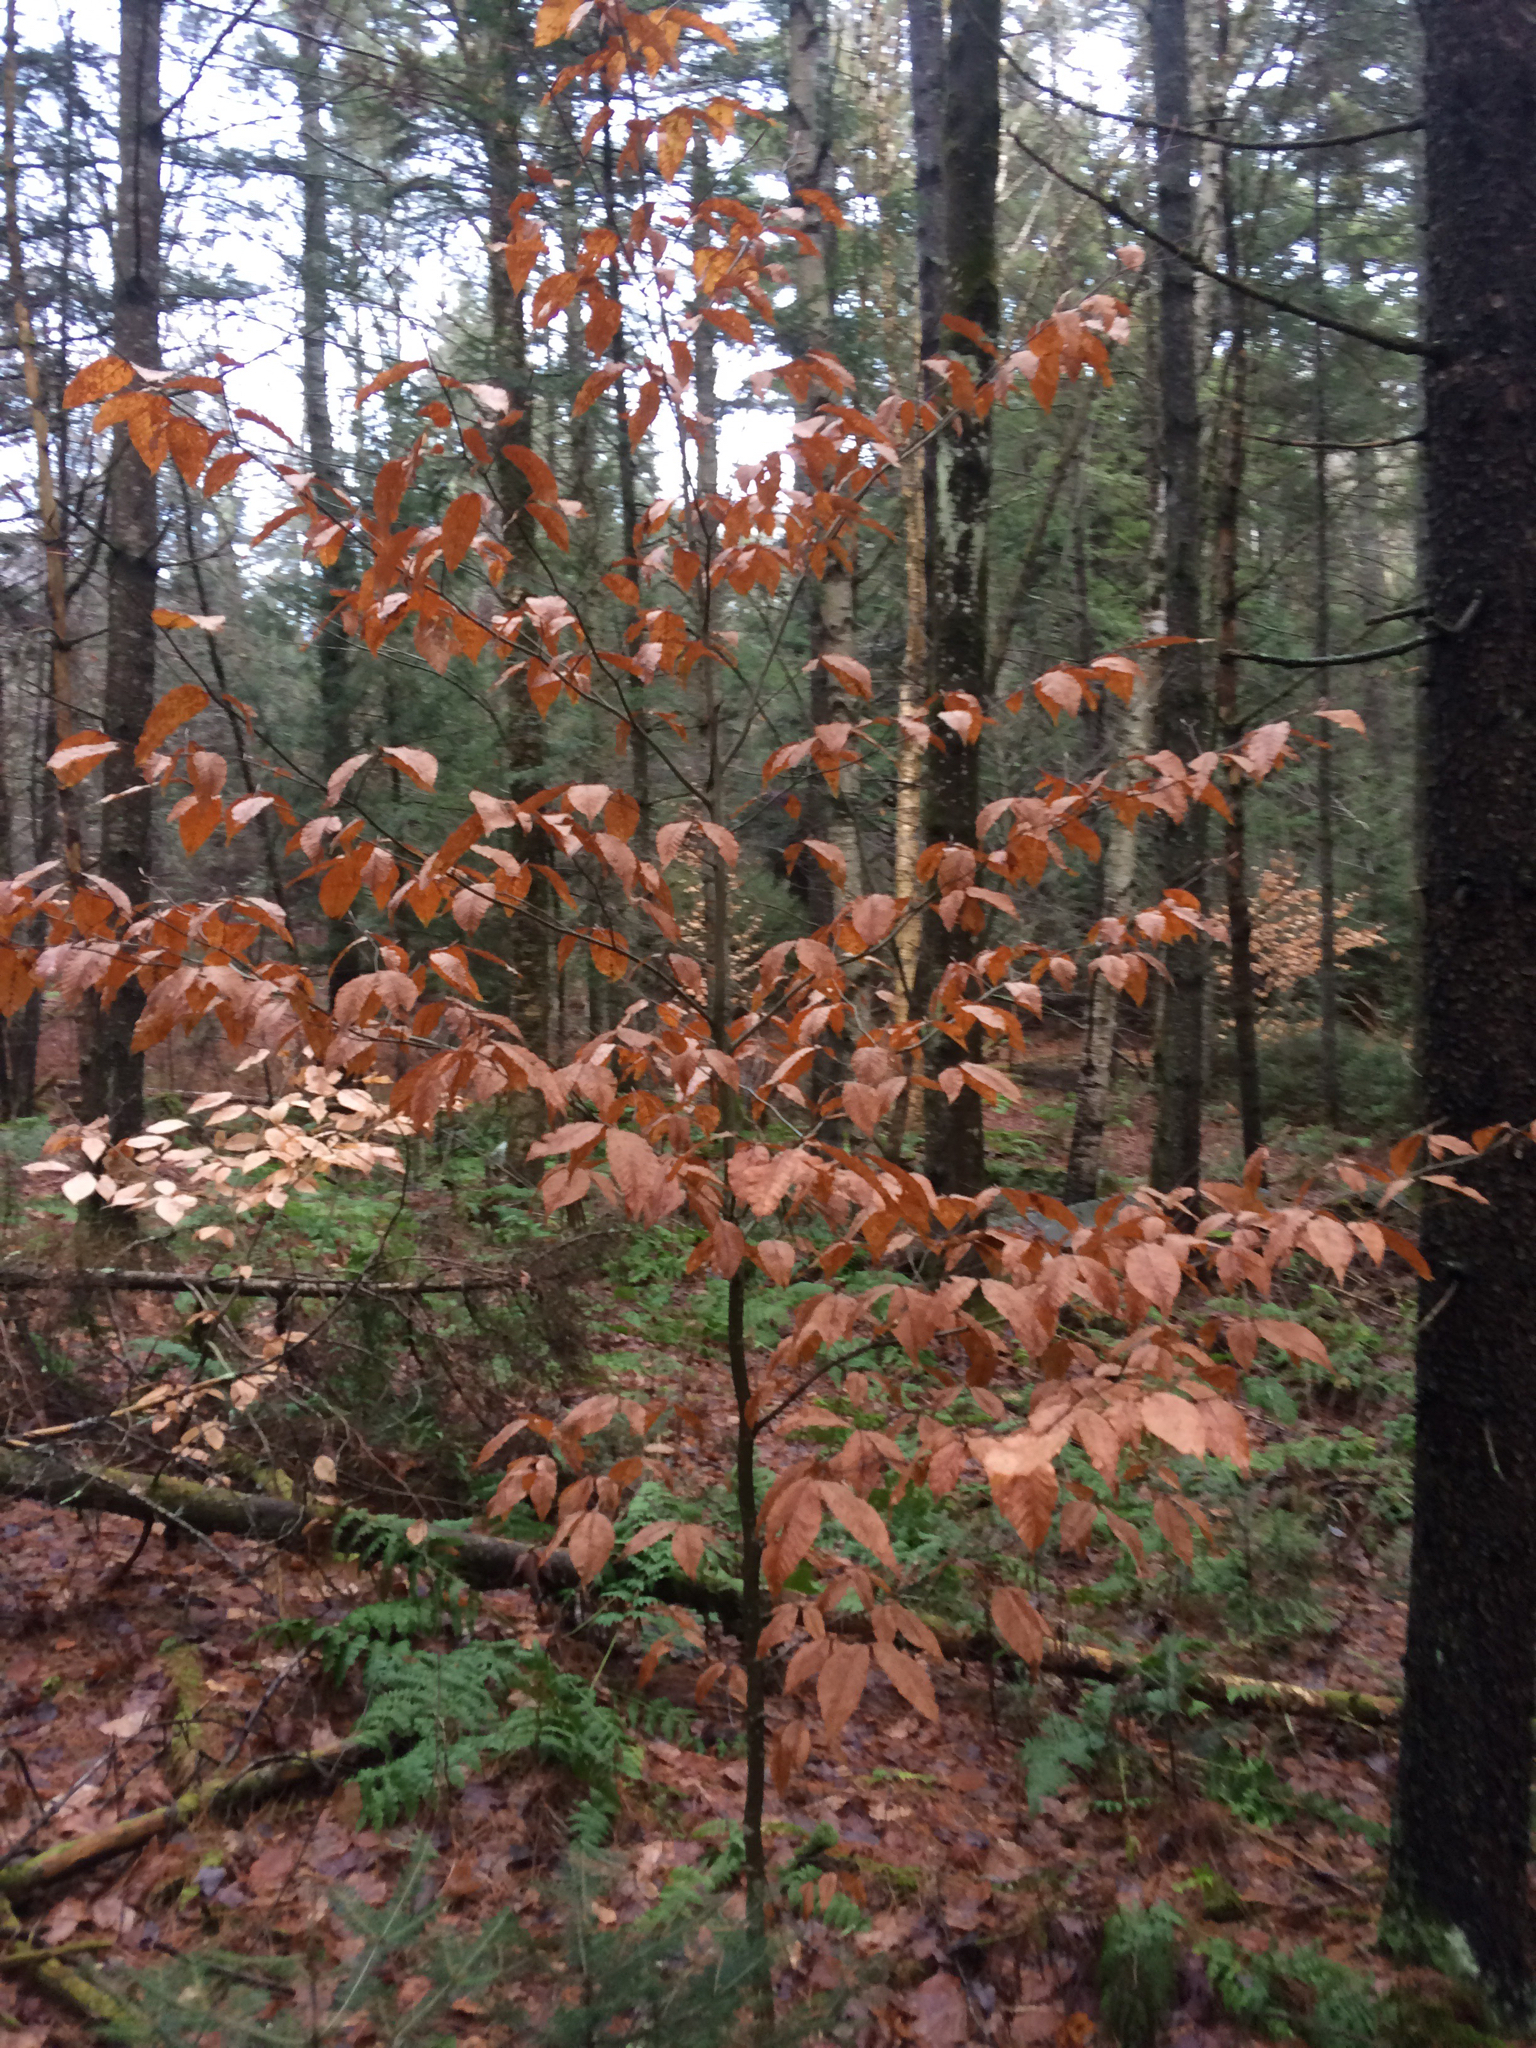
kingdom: Plantae
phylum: Tracheophyta
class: Magnoliopsida
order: Fagales
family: Fagaceae
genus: Fagus
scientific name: Fagus grandifolia
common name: American beech
